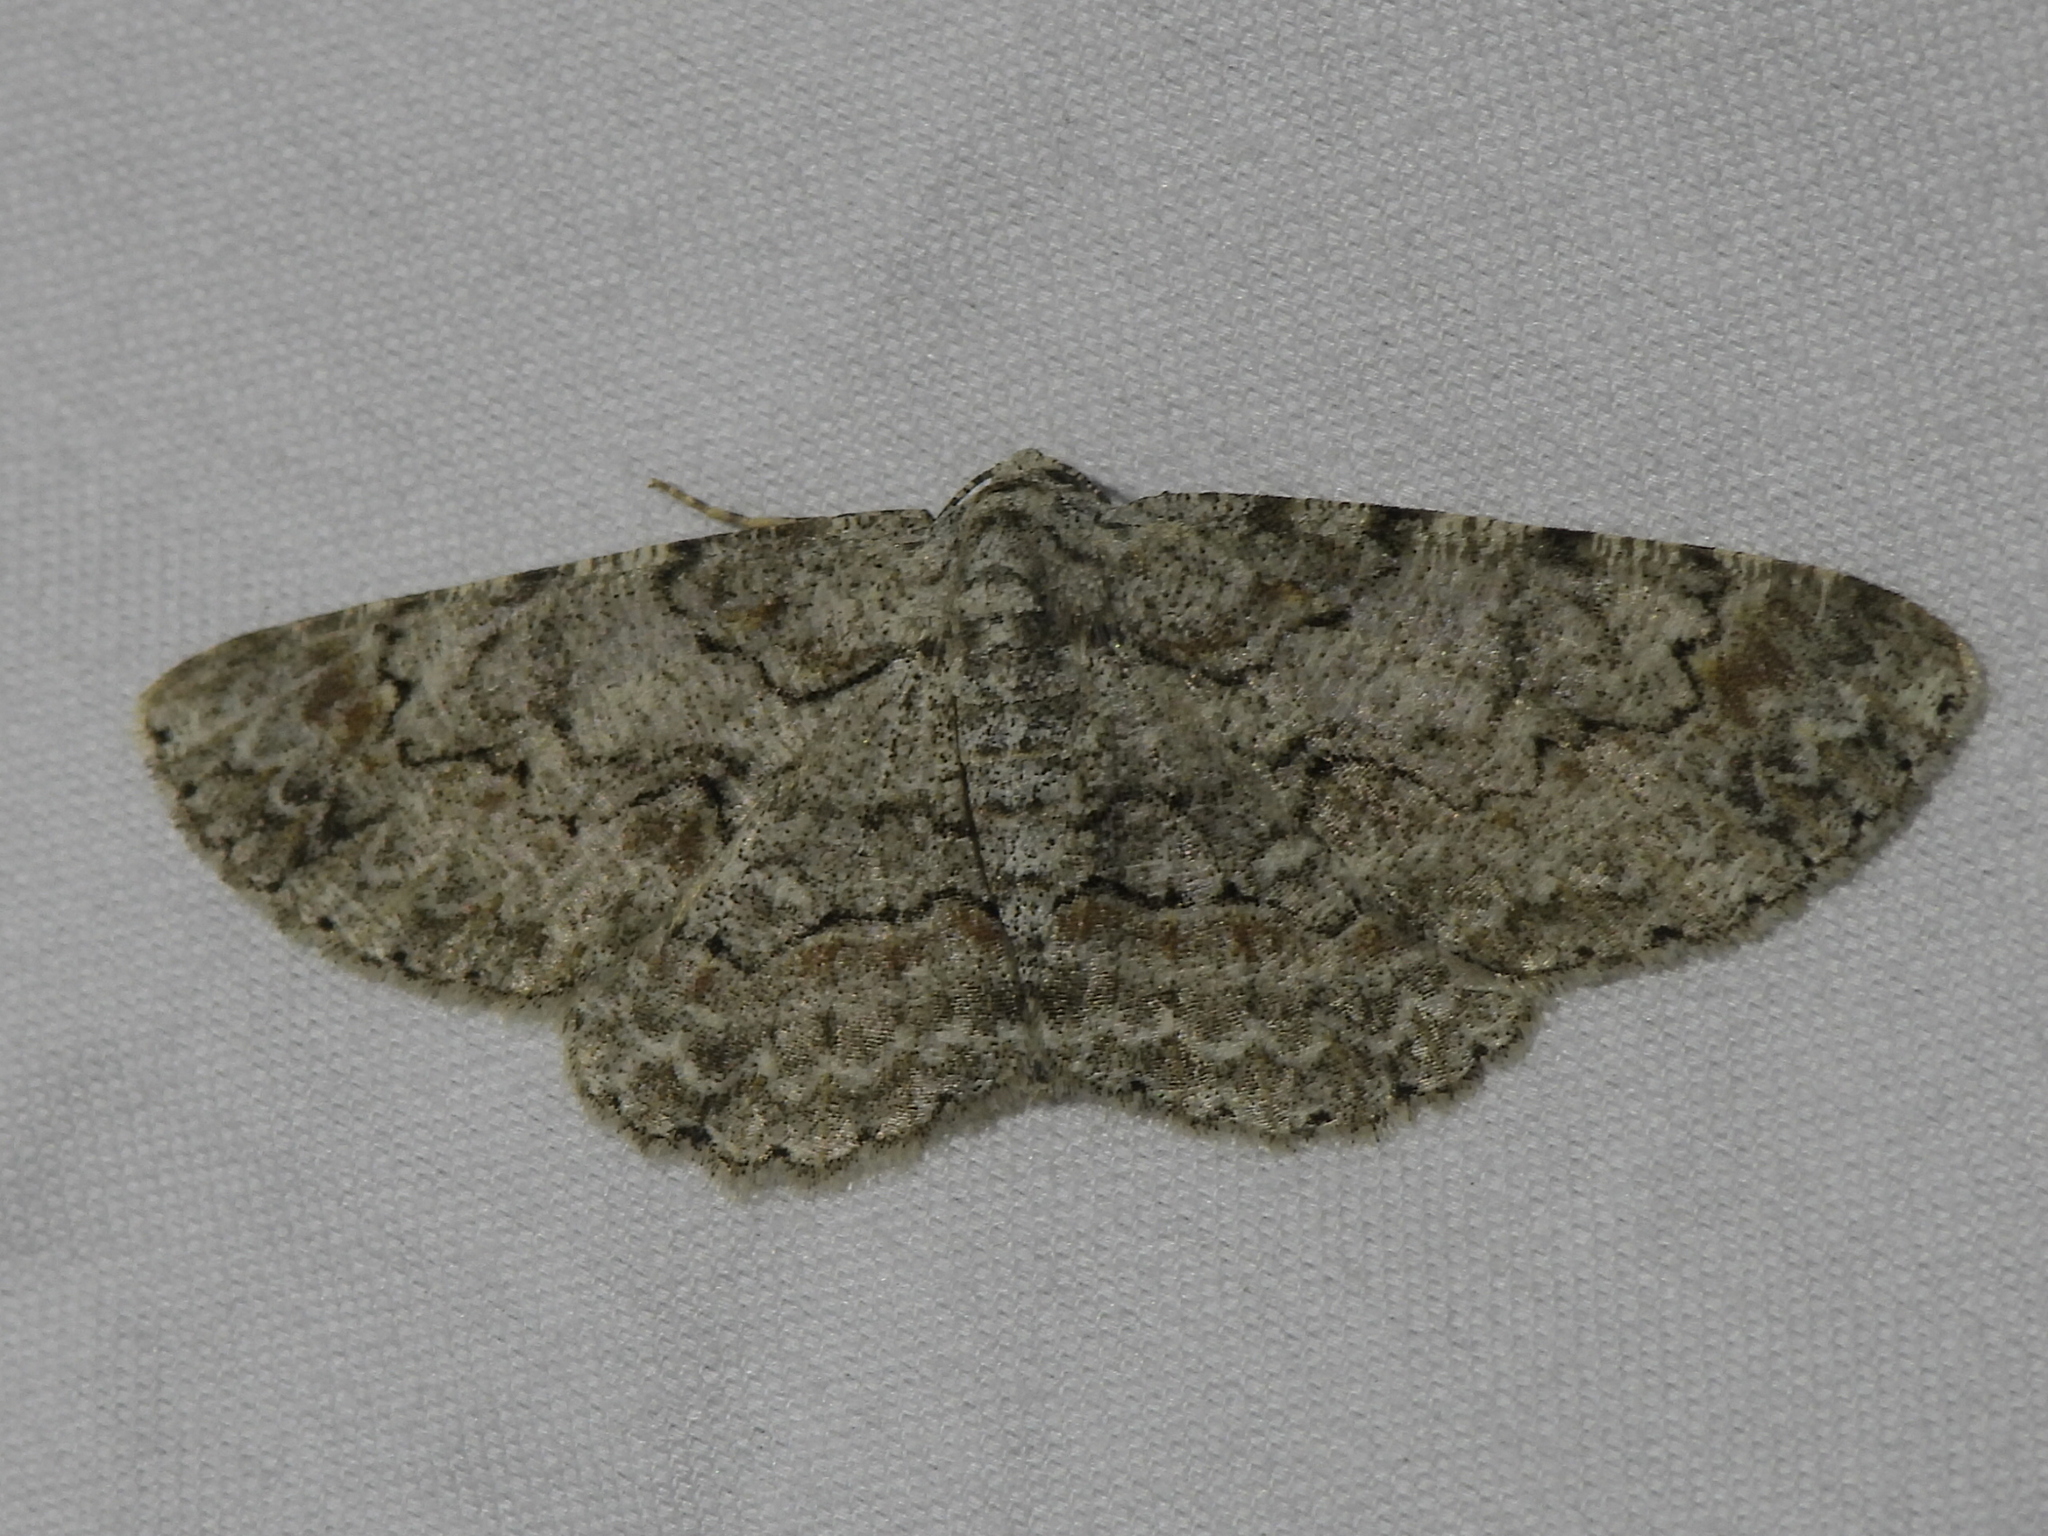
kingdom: Animalia
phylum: Arthropoda
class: Insecta
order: Lepidoptera
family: Geometridae
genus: Iridopsis
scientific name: Iridopsis defectaria
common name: Brown-shaded gray
